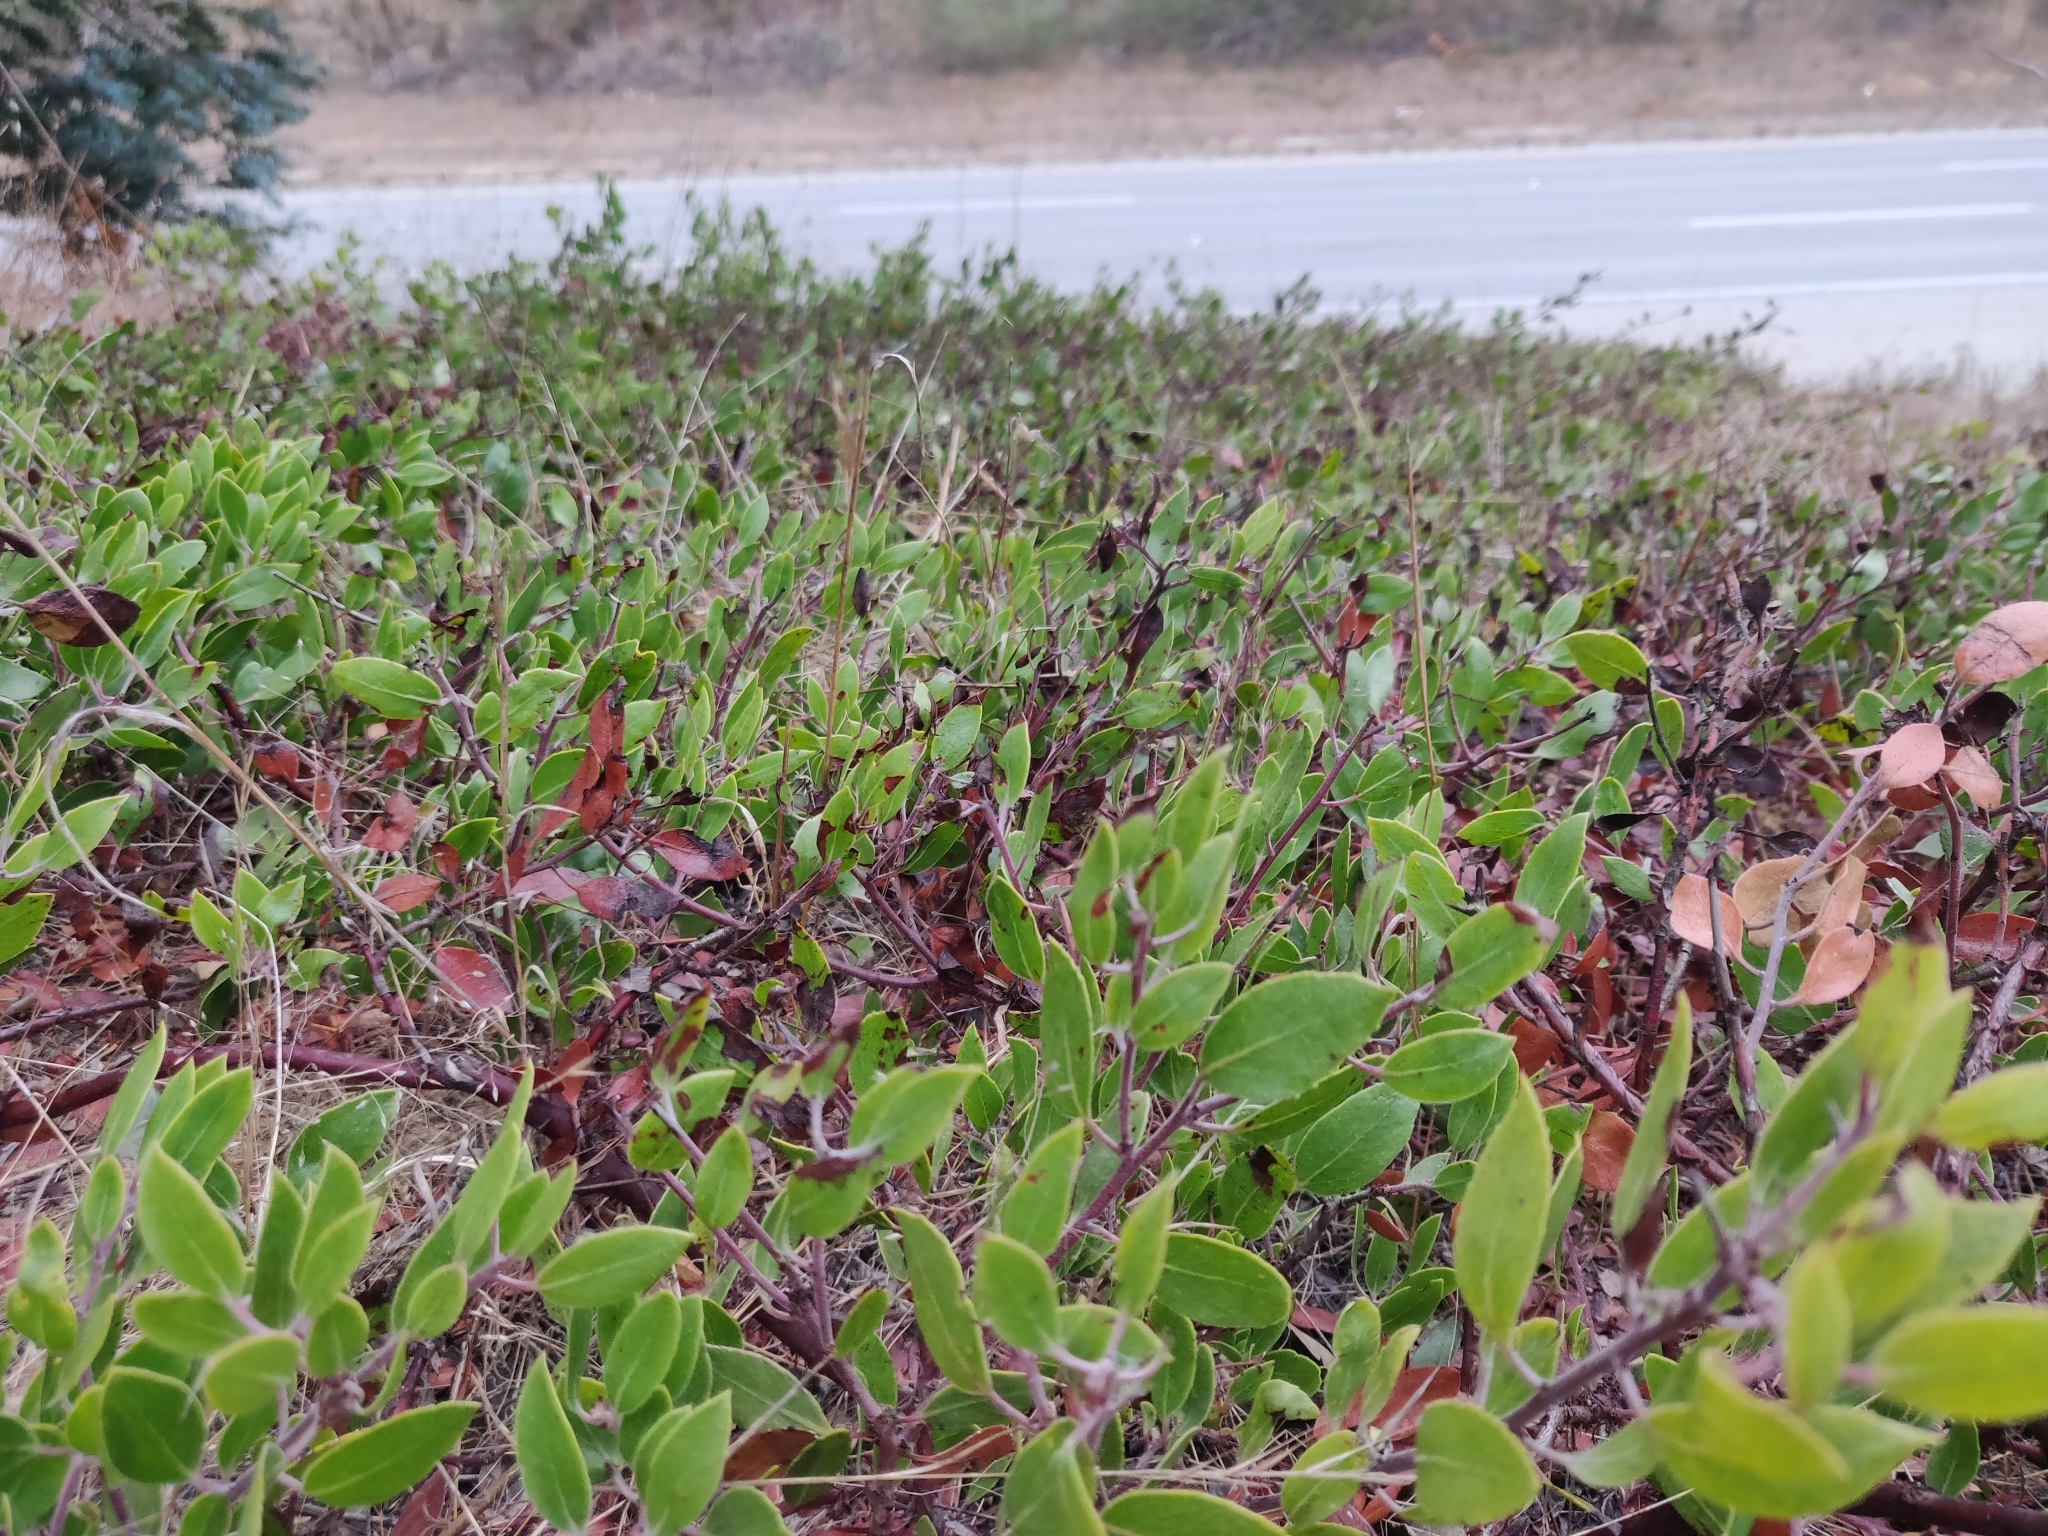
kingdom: Plantae
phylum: Tracheophyta
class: Magnoliopsida
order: Ericales
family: Ericaceae
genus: Arctostaphylos
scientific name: Arctostaphylos hookeri
